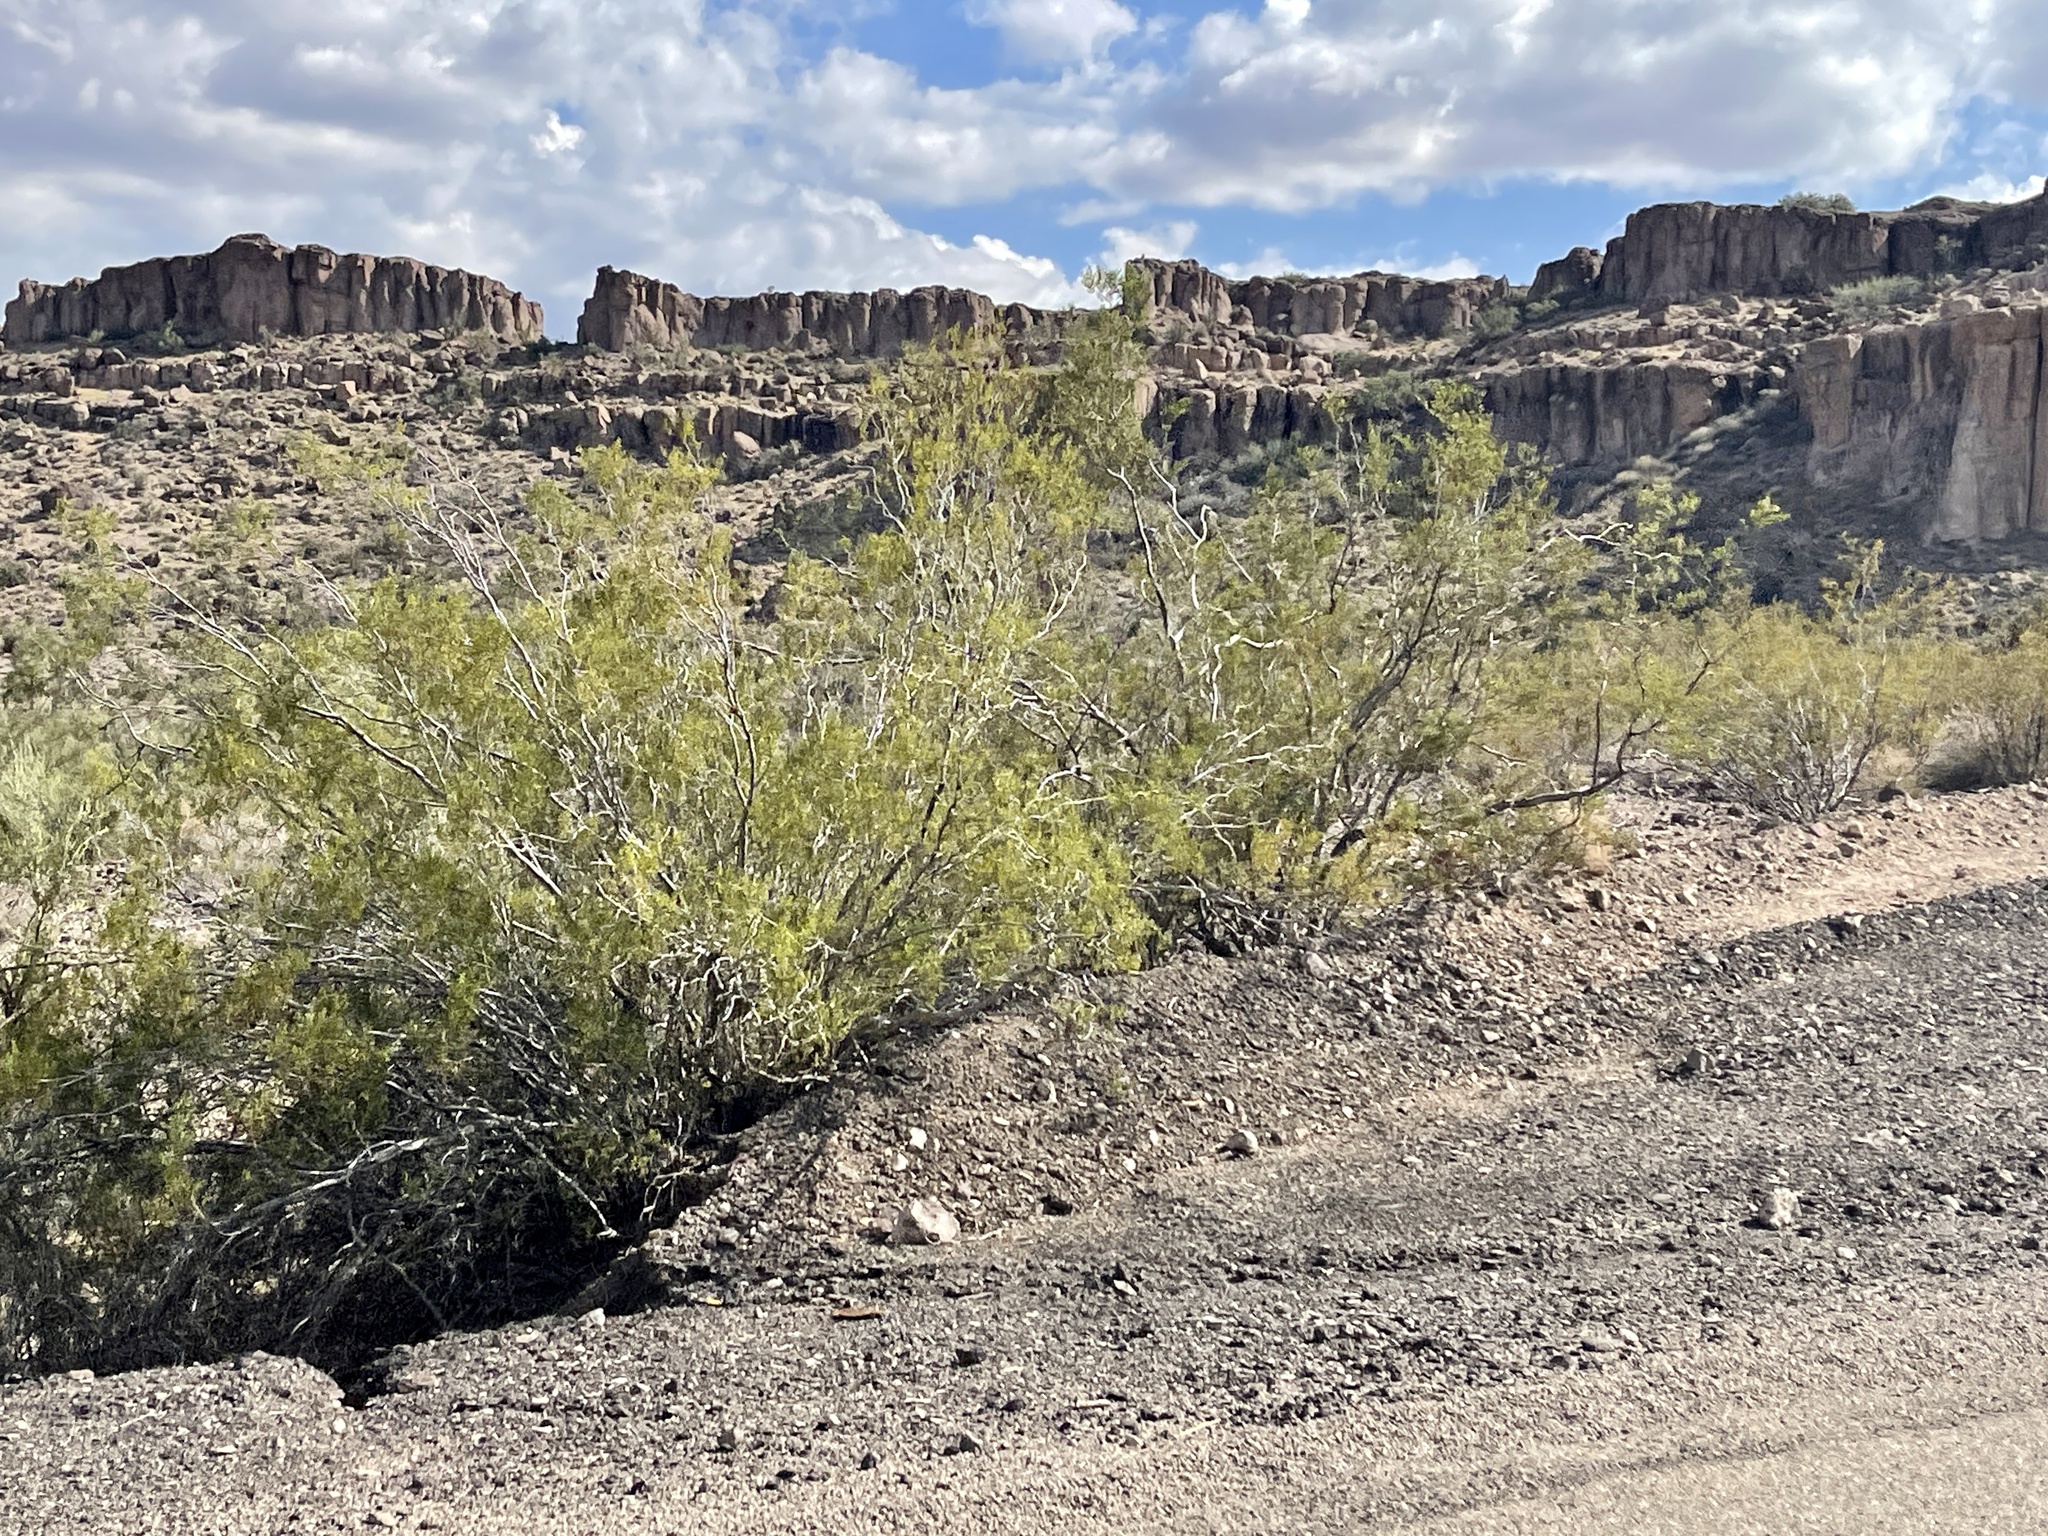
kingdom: Plantae
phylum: Tracheophyta
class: Magnoliopsida
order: Zygophyllales
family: Zygophyllaceae
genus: Larrea
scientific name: Larrea tridentata
